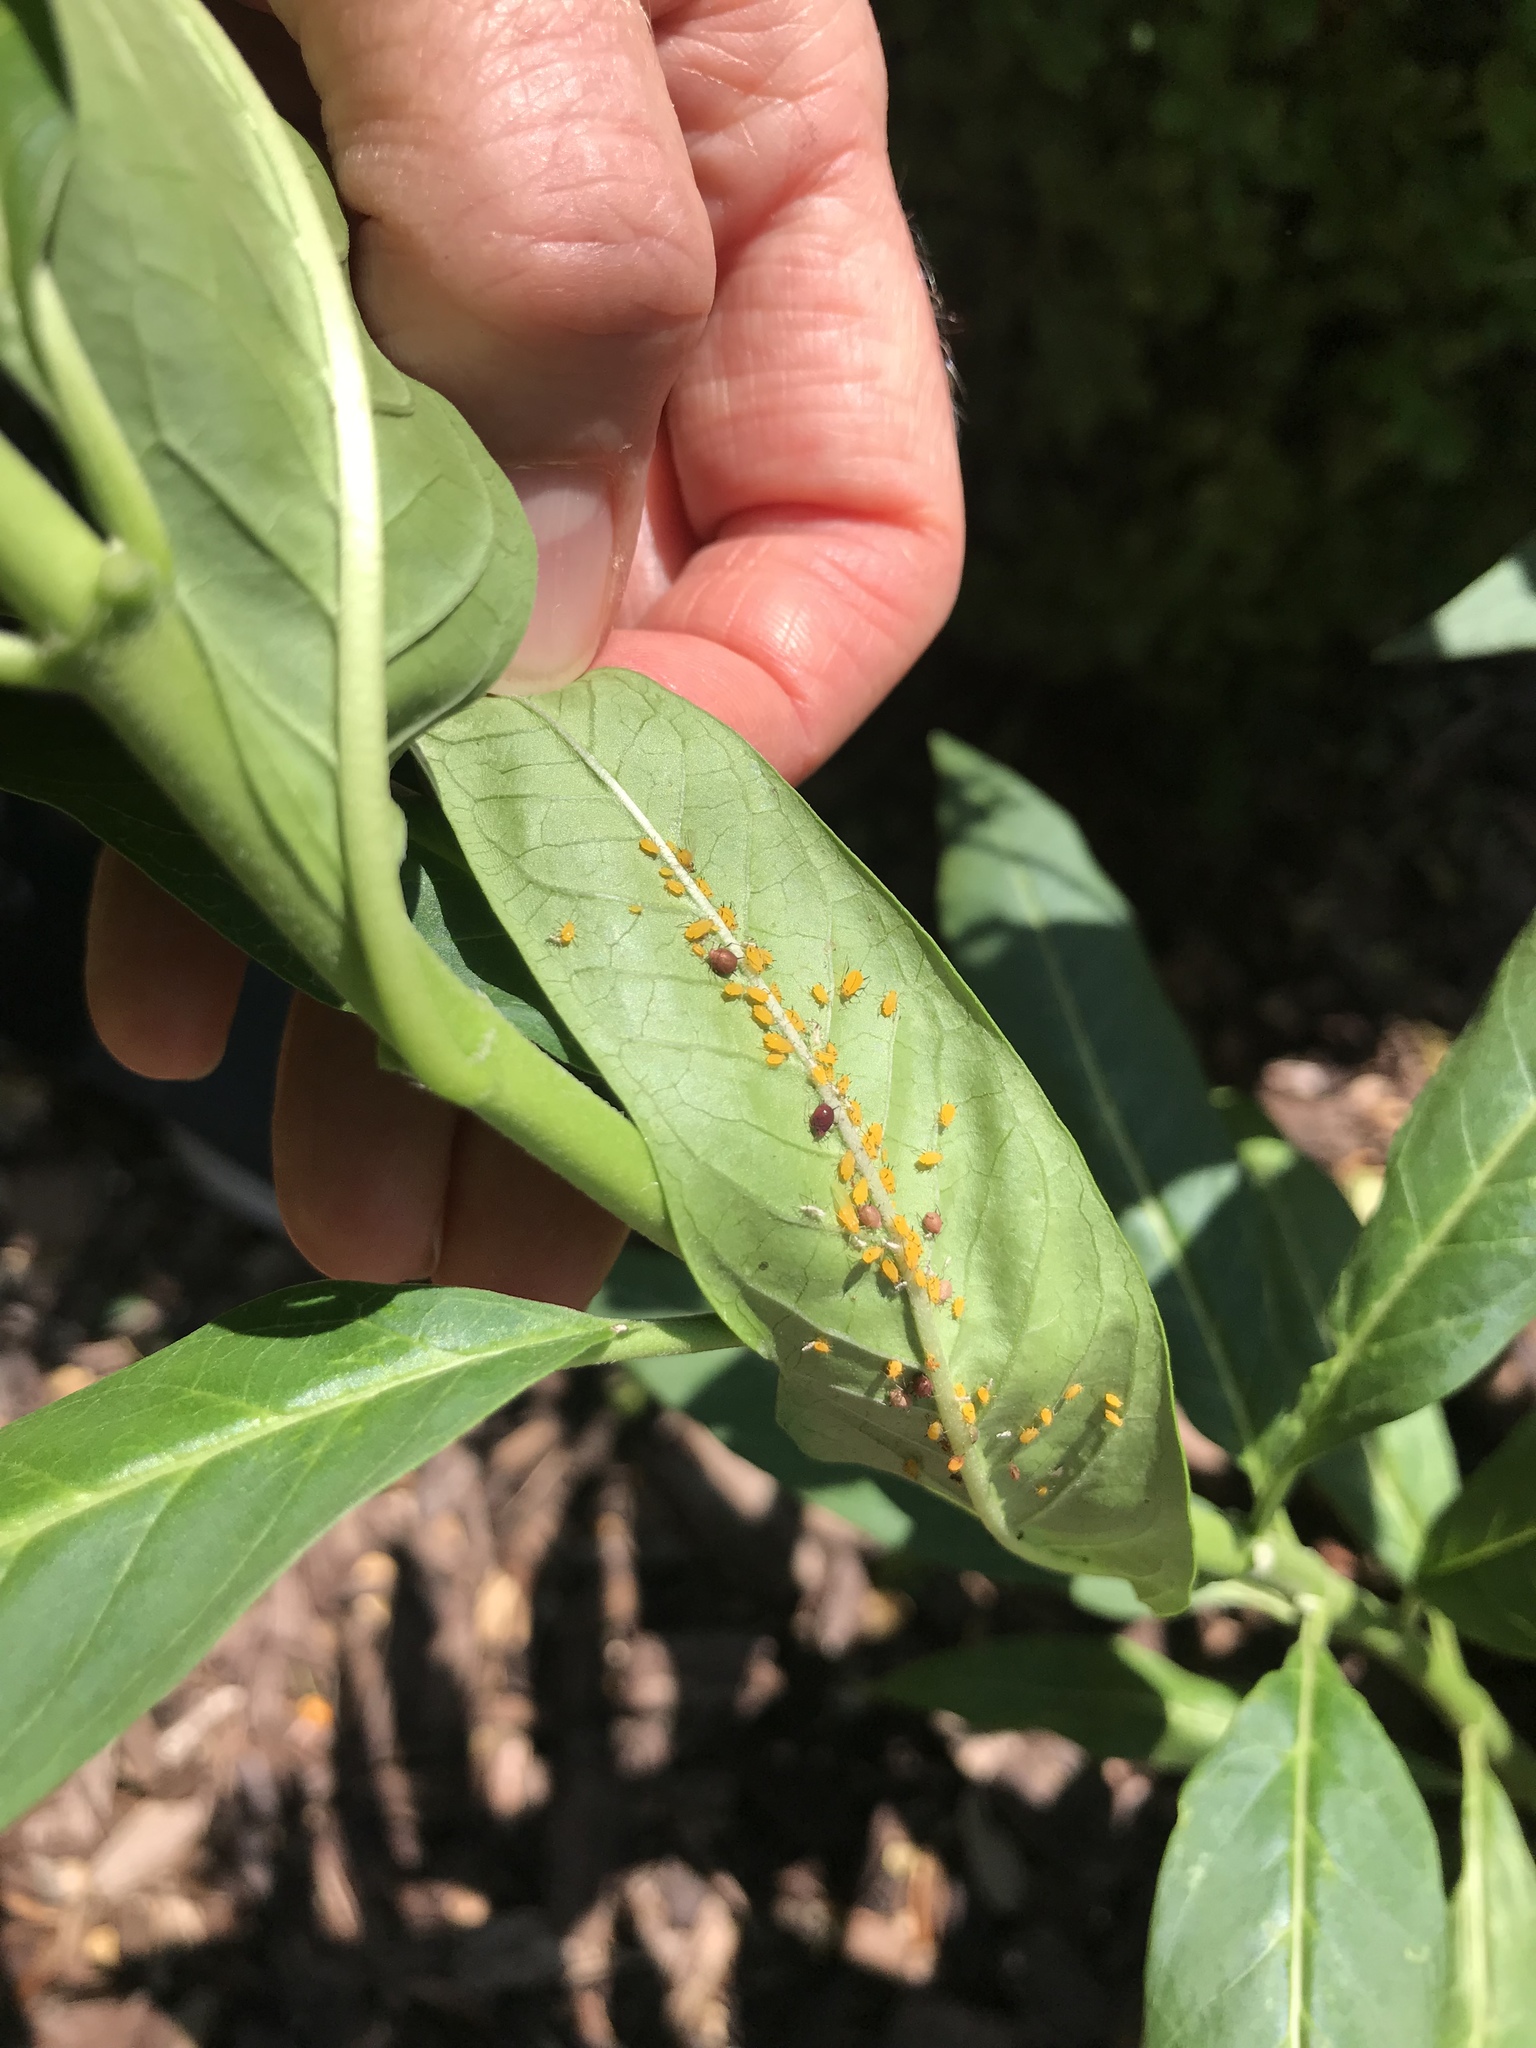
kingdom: Animalia
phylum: Arthropoda
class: Insecta
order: Hemiptera
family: Aphididae
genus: Aphis
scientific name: Aphis nerii
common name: Oleander aphid
